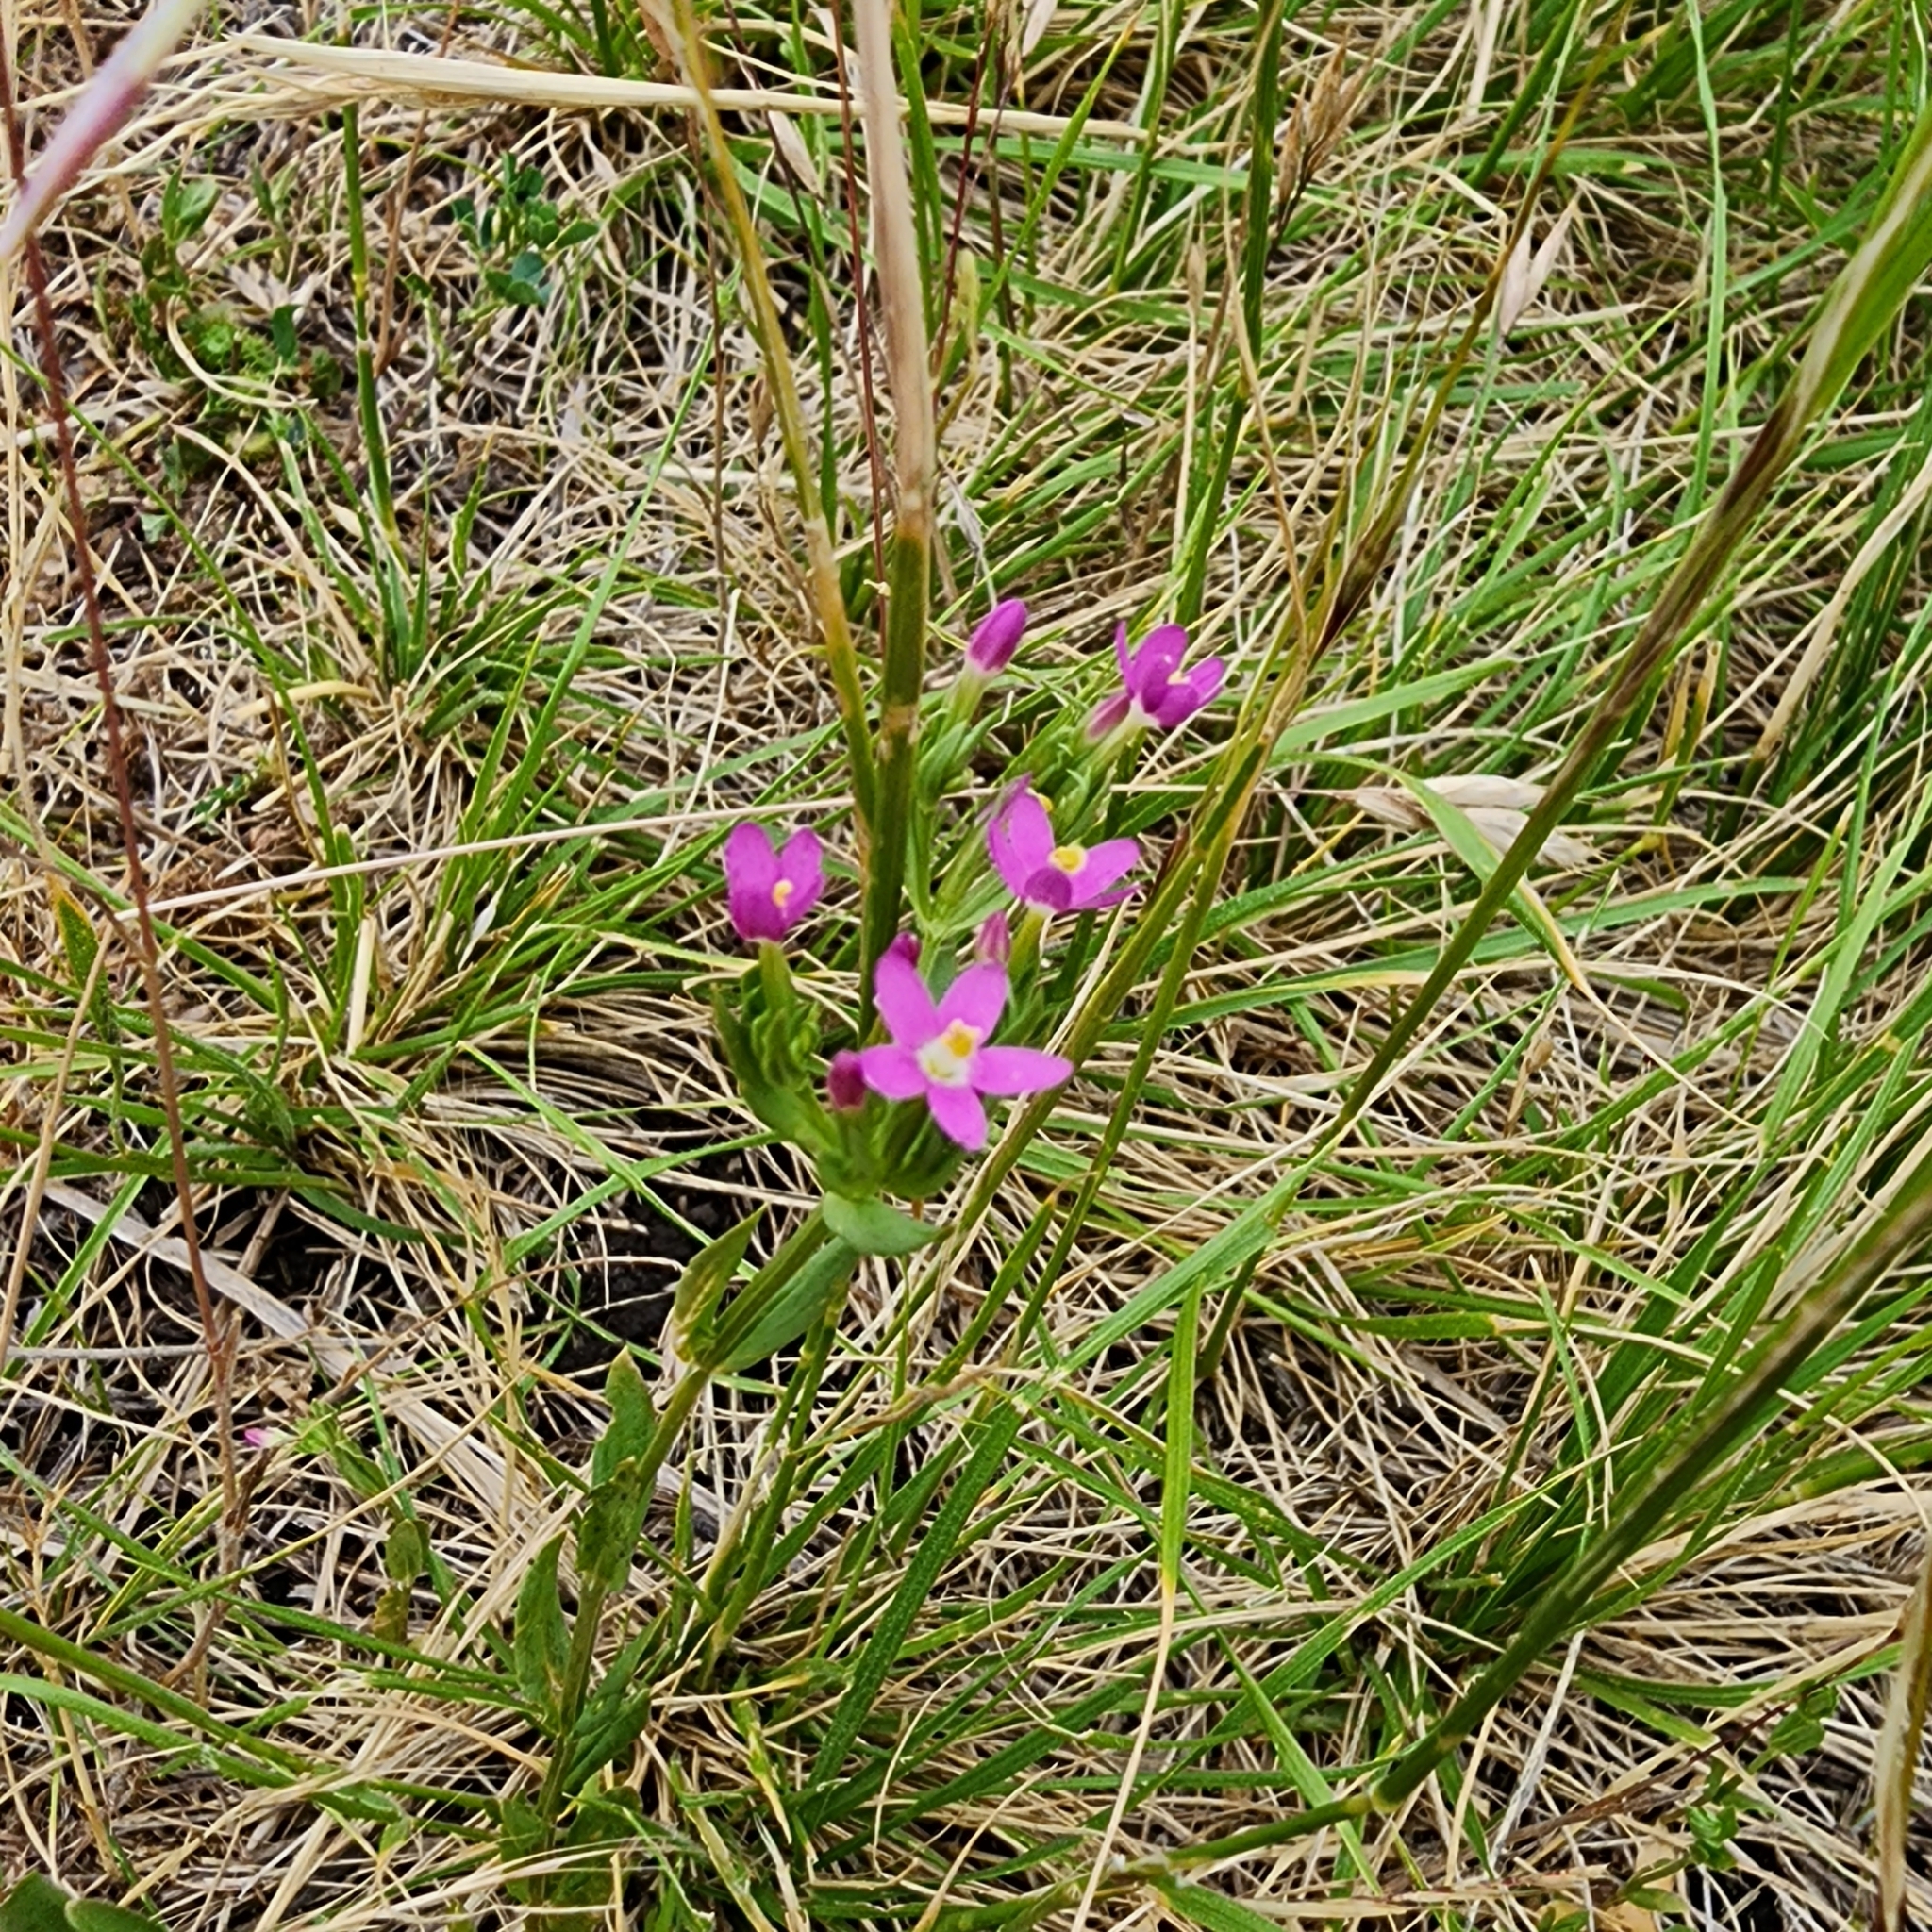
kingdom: Plantae
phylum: Tracheophyta
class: Magnoliopsida
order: Gentianales
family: Gentianaceae
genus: Centaurium
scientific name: Centaurium tenuiflorum
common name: Slender centaury
